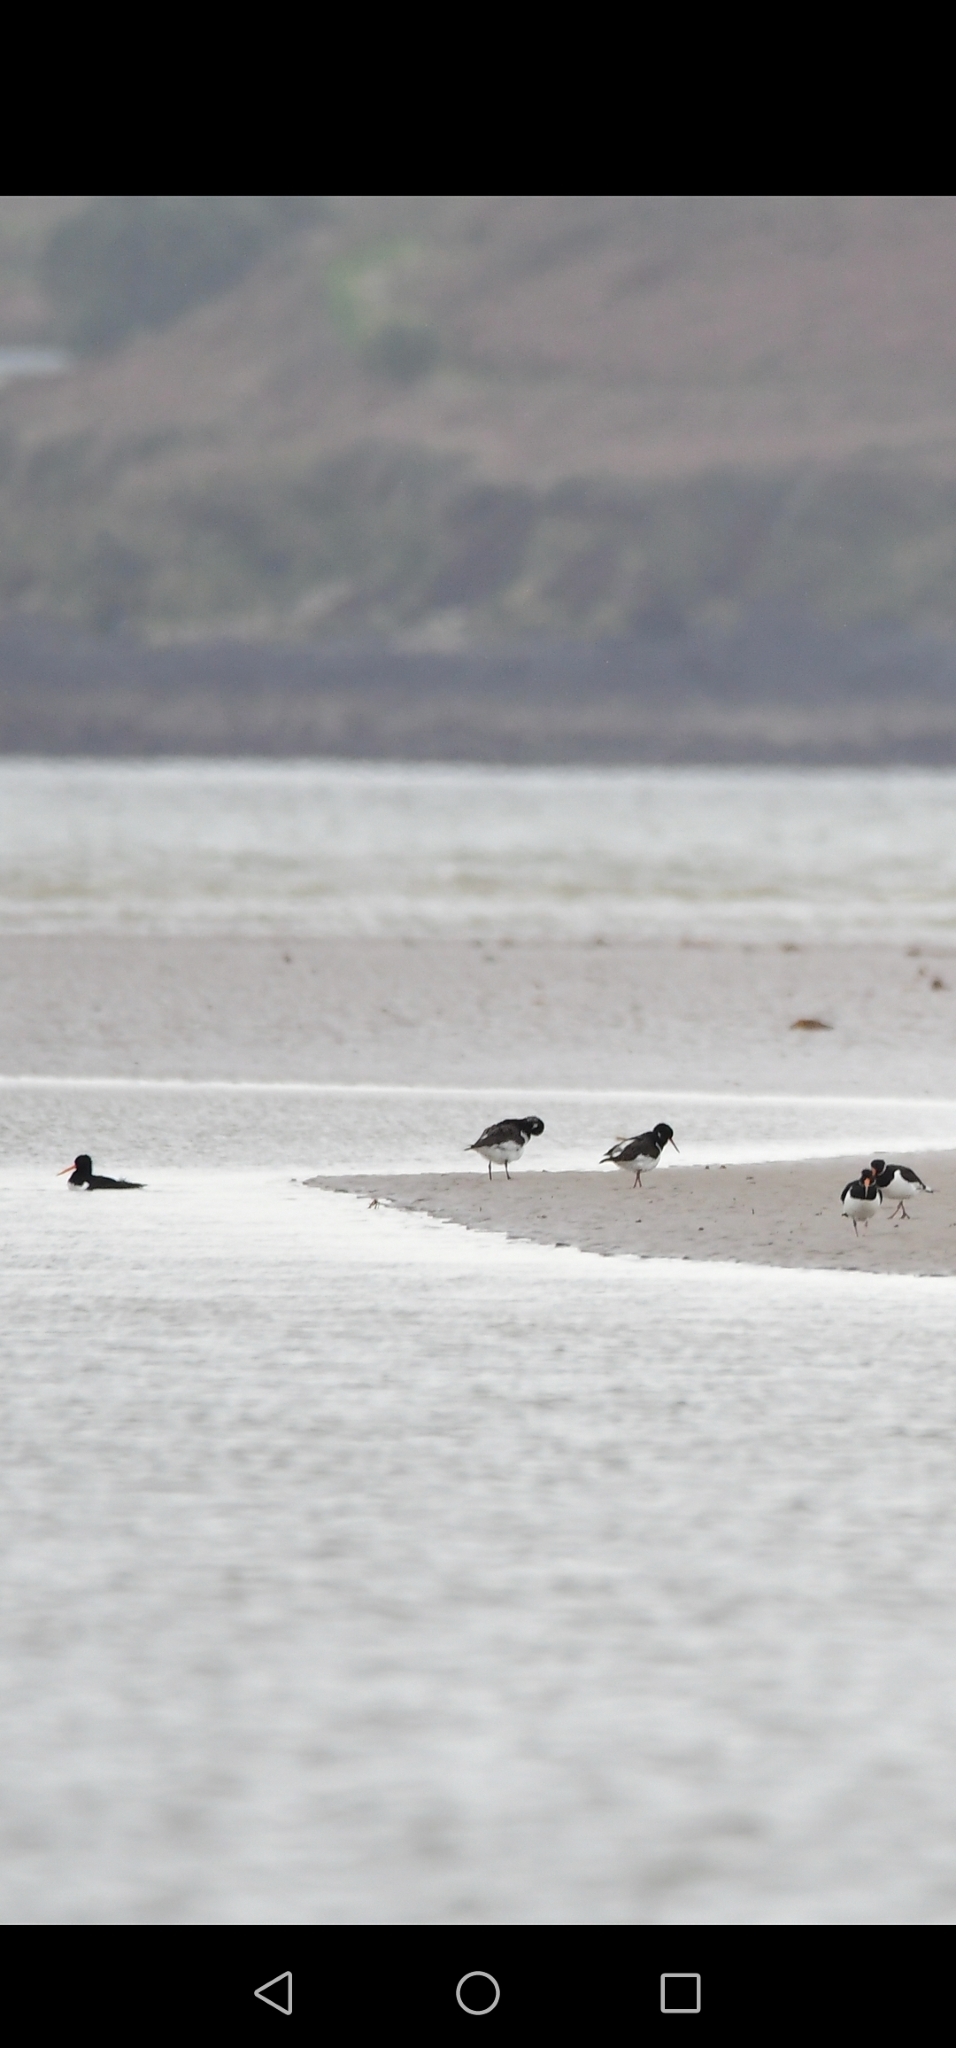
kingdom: Animalia
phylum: Chordata
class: Aves
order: Charadriiformes
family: Haematopodidae
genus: Haematopus
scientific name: Haematopus ostralegus
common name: Eurasian oystercatcher
